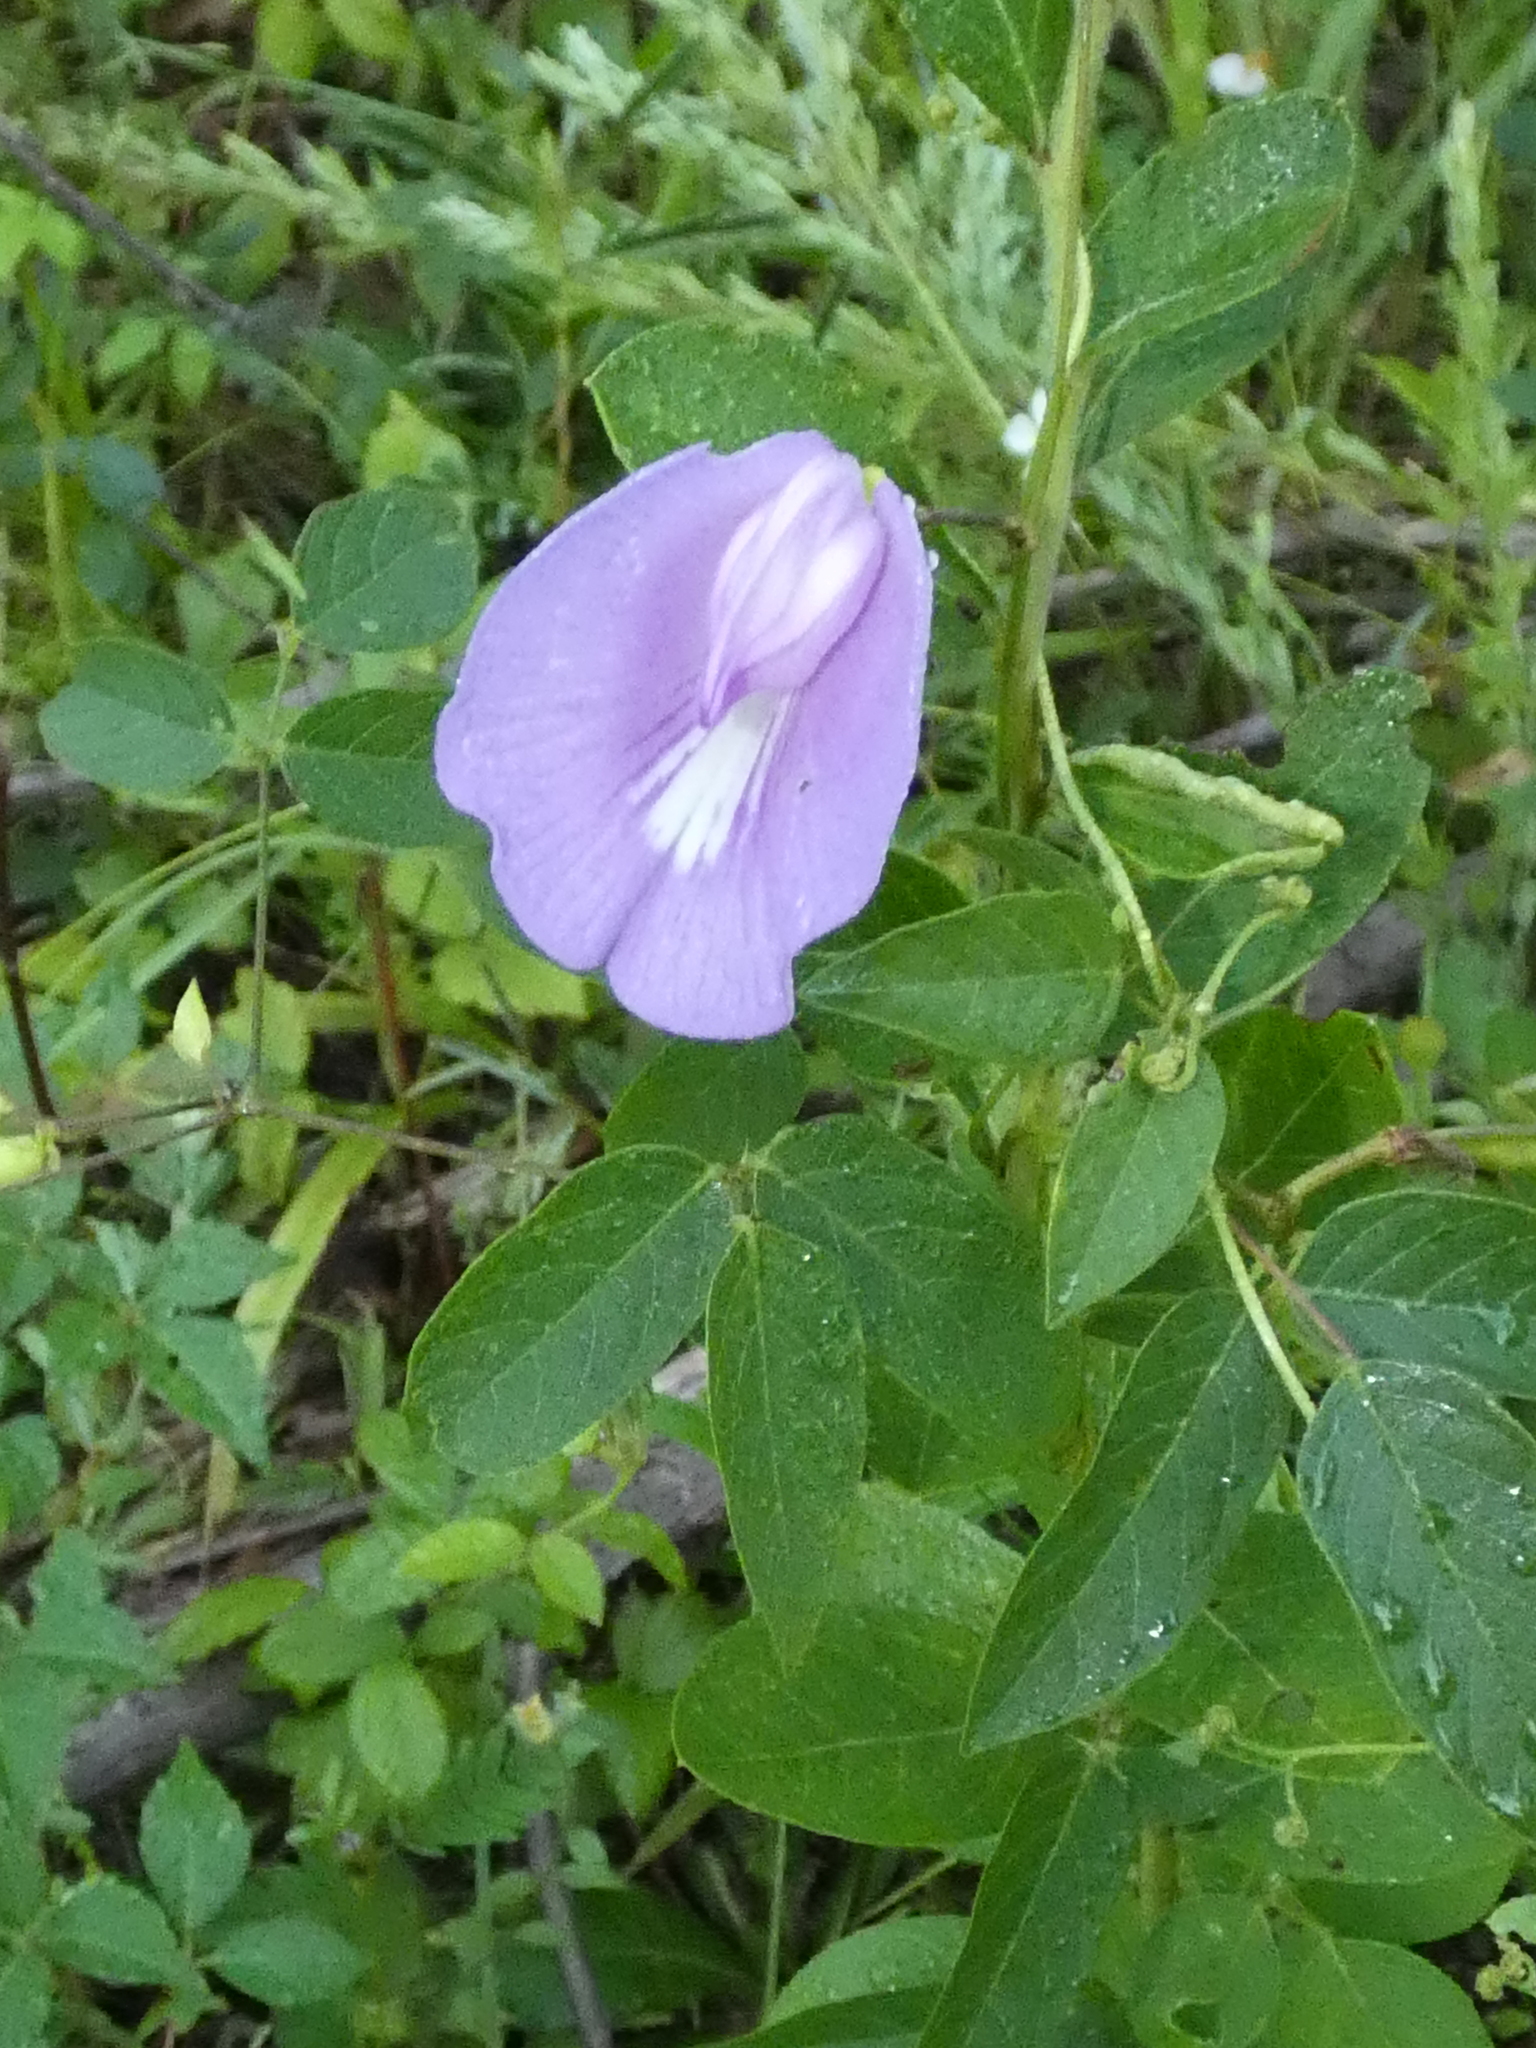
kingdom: Plantae
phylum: Tracheophyta
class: Magnoliopsida
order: Fabales
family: Fabaceae
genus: Centrosema
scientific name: Centrosema virginianum
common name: Butterfly-pea
